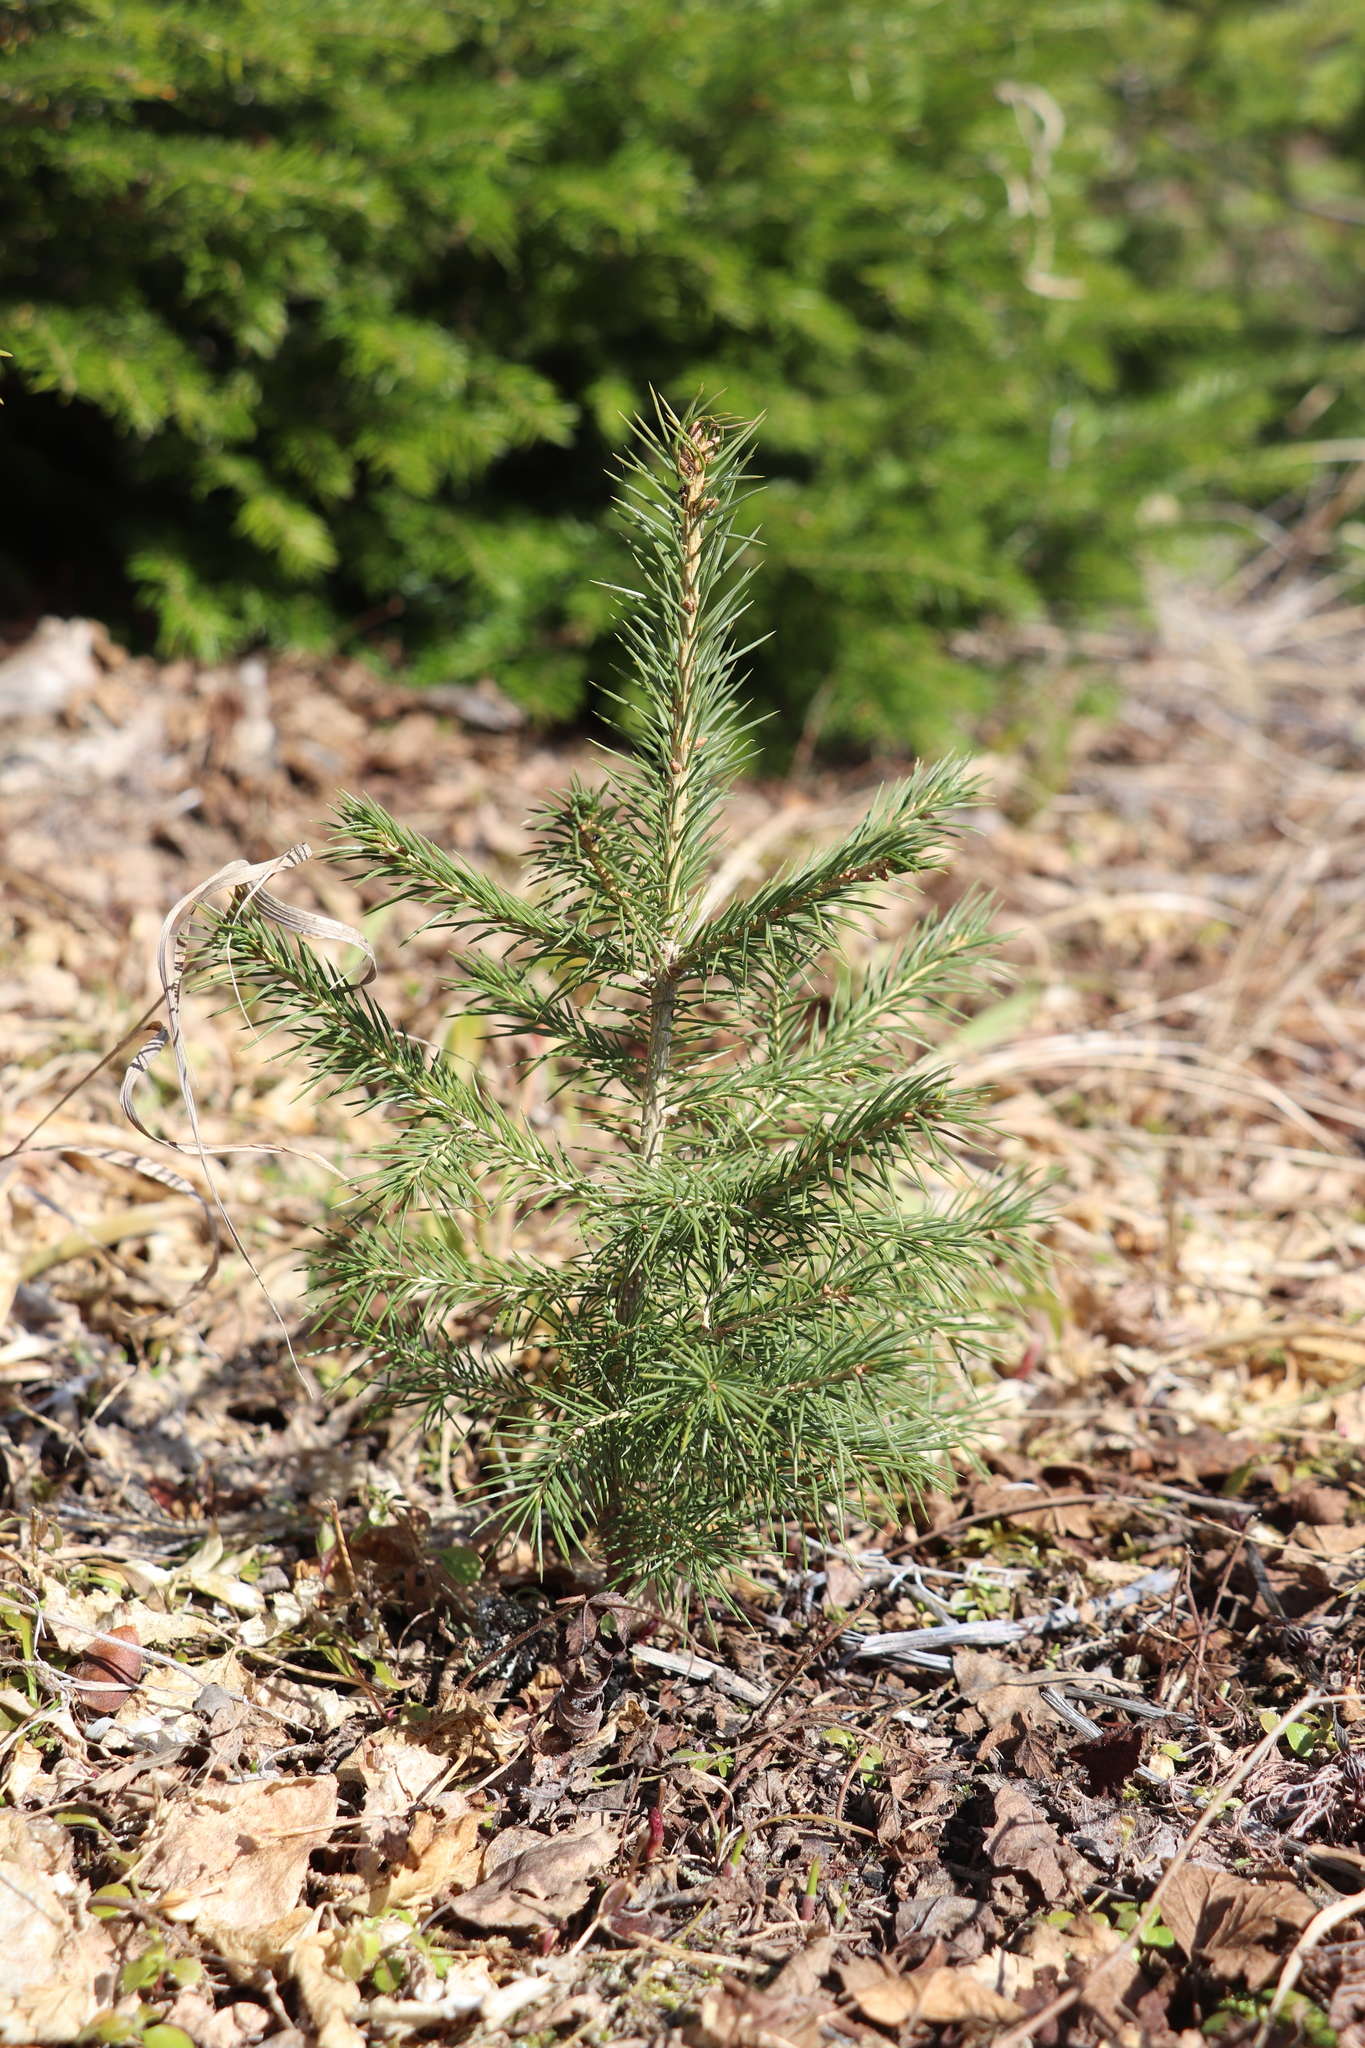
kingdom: Plantae
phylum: Tracheophyta
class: Pinopsida
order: Pinales
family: Pinaceae
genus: Picea
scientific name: Picea obovata
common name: Siberian spruce
